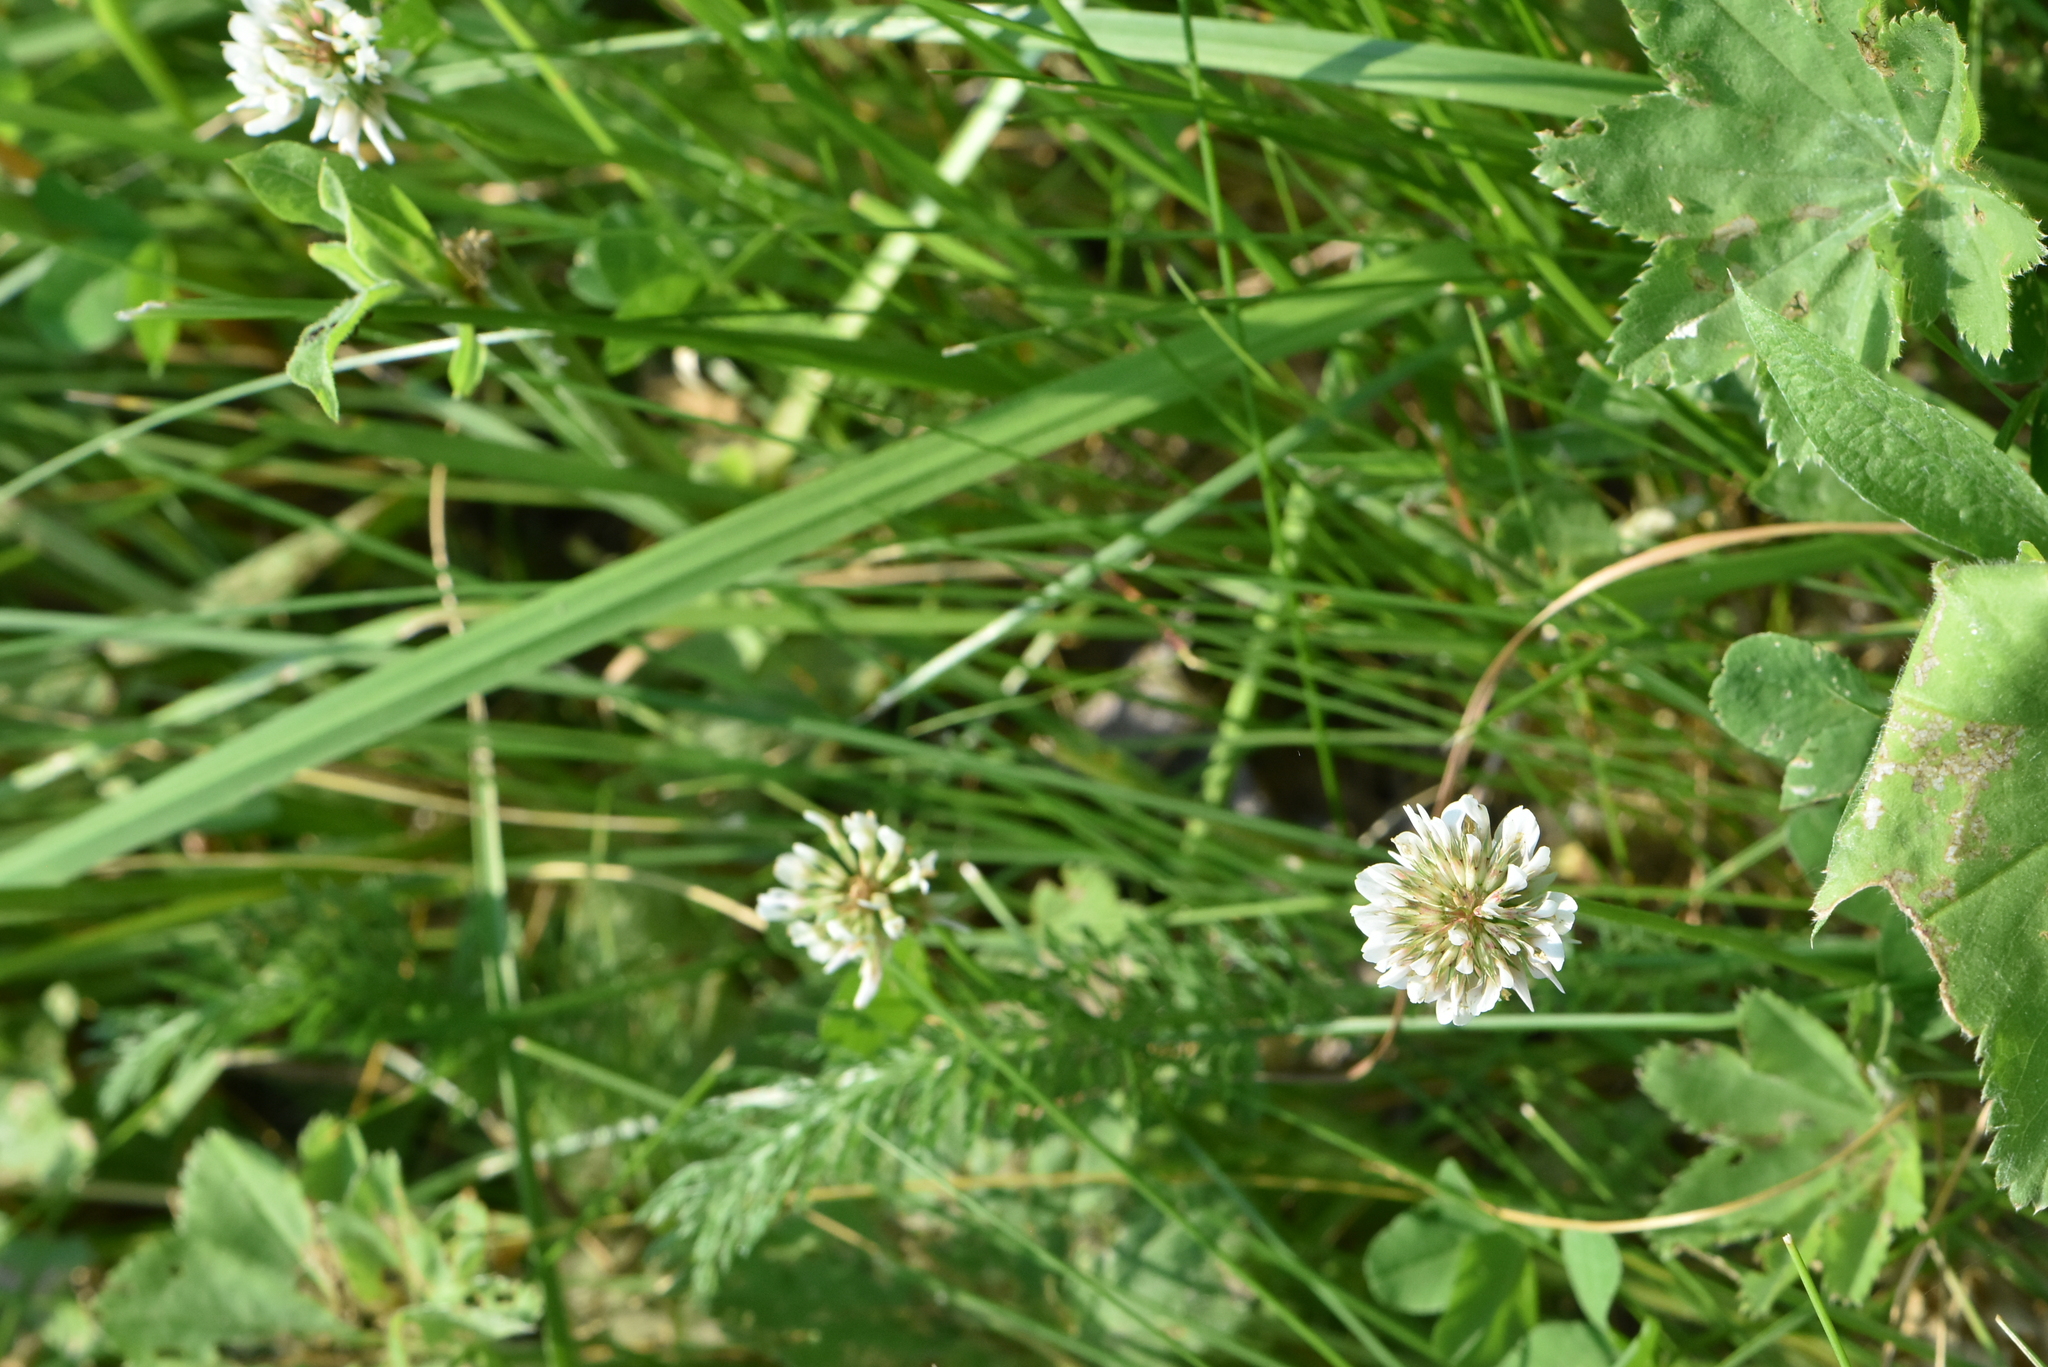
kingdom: Plantae
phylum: Tracheophyta
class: Magnoliopsida
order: Fabales
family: Fabaceae
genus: Trifolium
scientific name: Trifolium repens
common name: White clover
